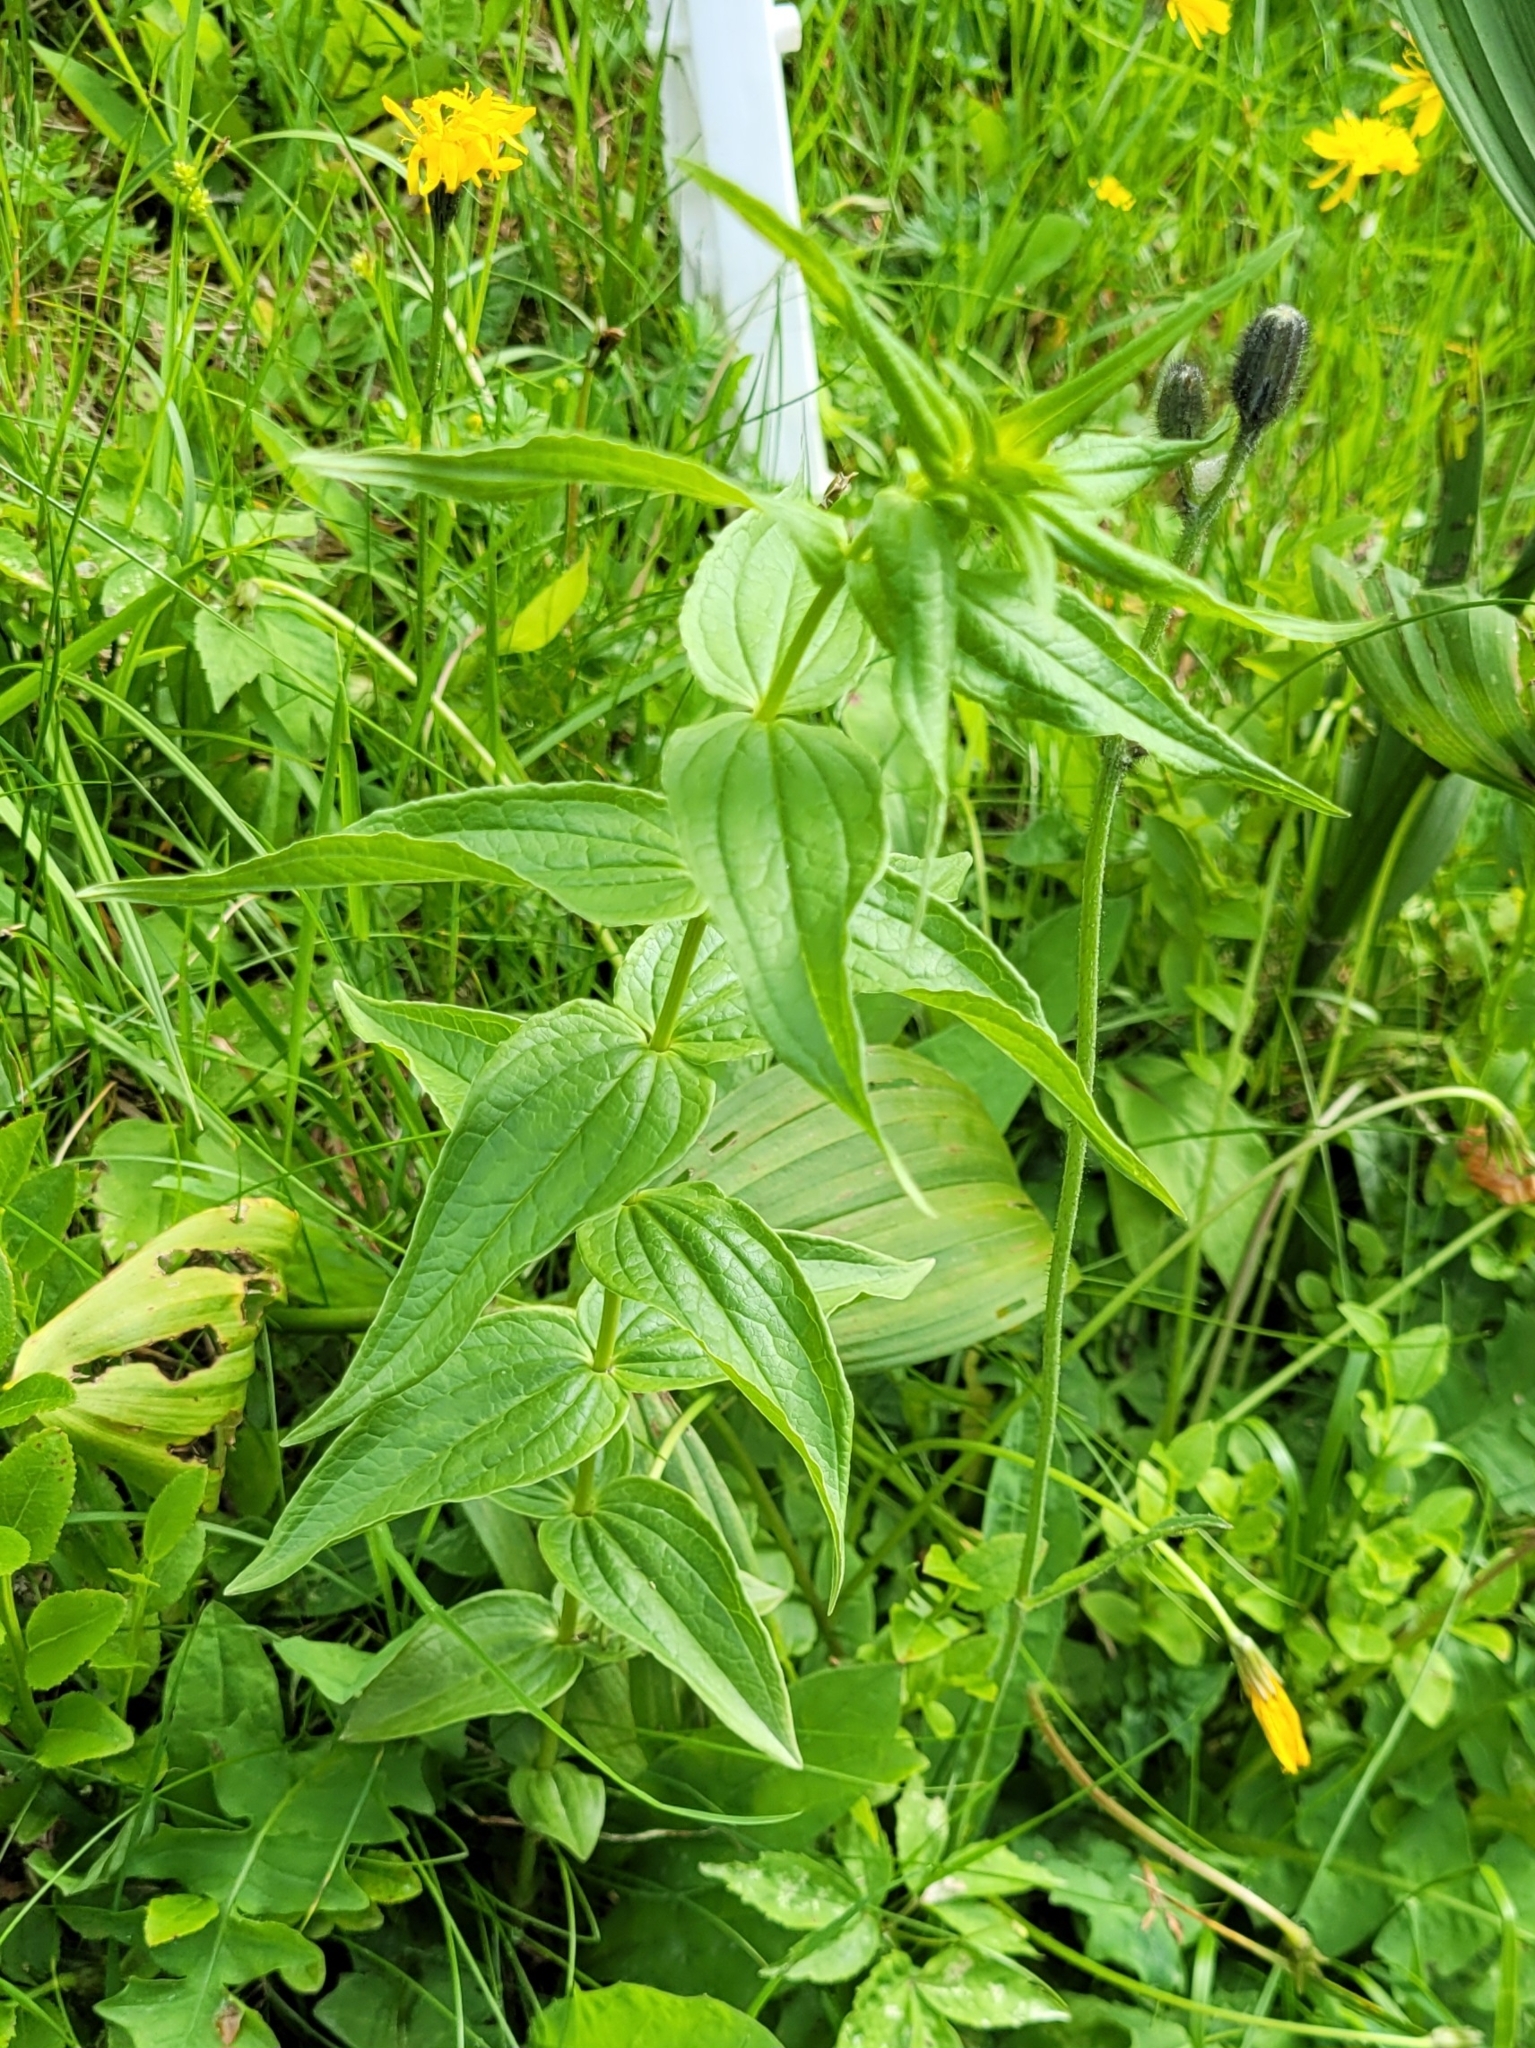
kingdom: Plantae
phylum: Tracheophyta
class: Magnoliopsida
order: Gentianales
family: Gentianaceae
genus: Gentiana
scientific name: Gentiana asclepiadea
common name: Willow gentian
